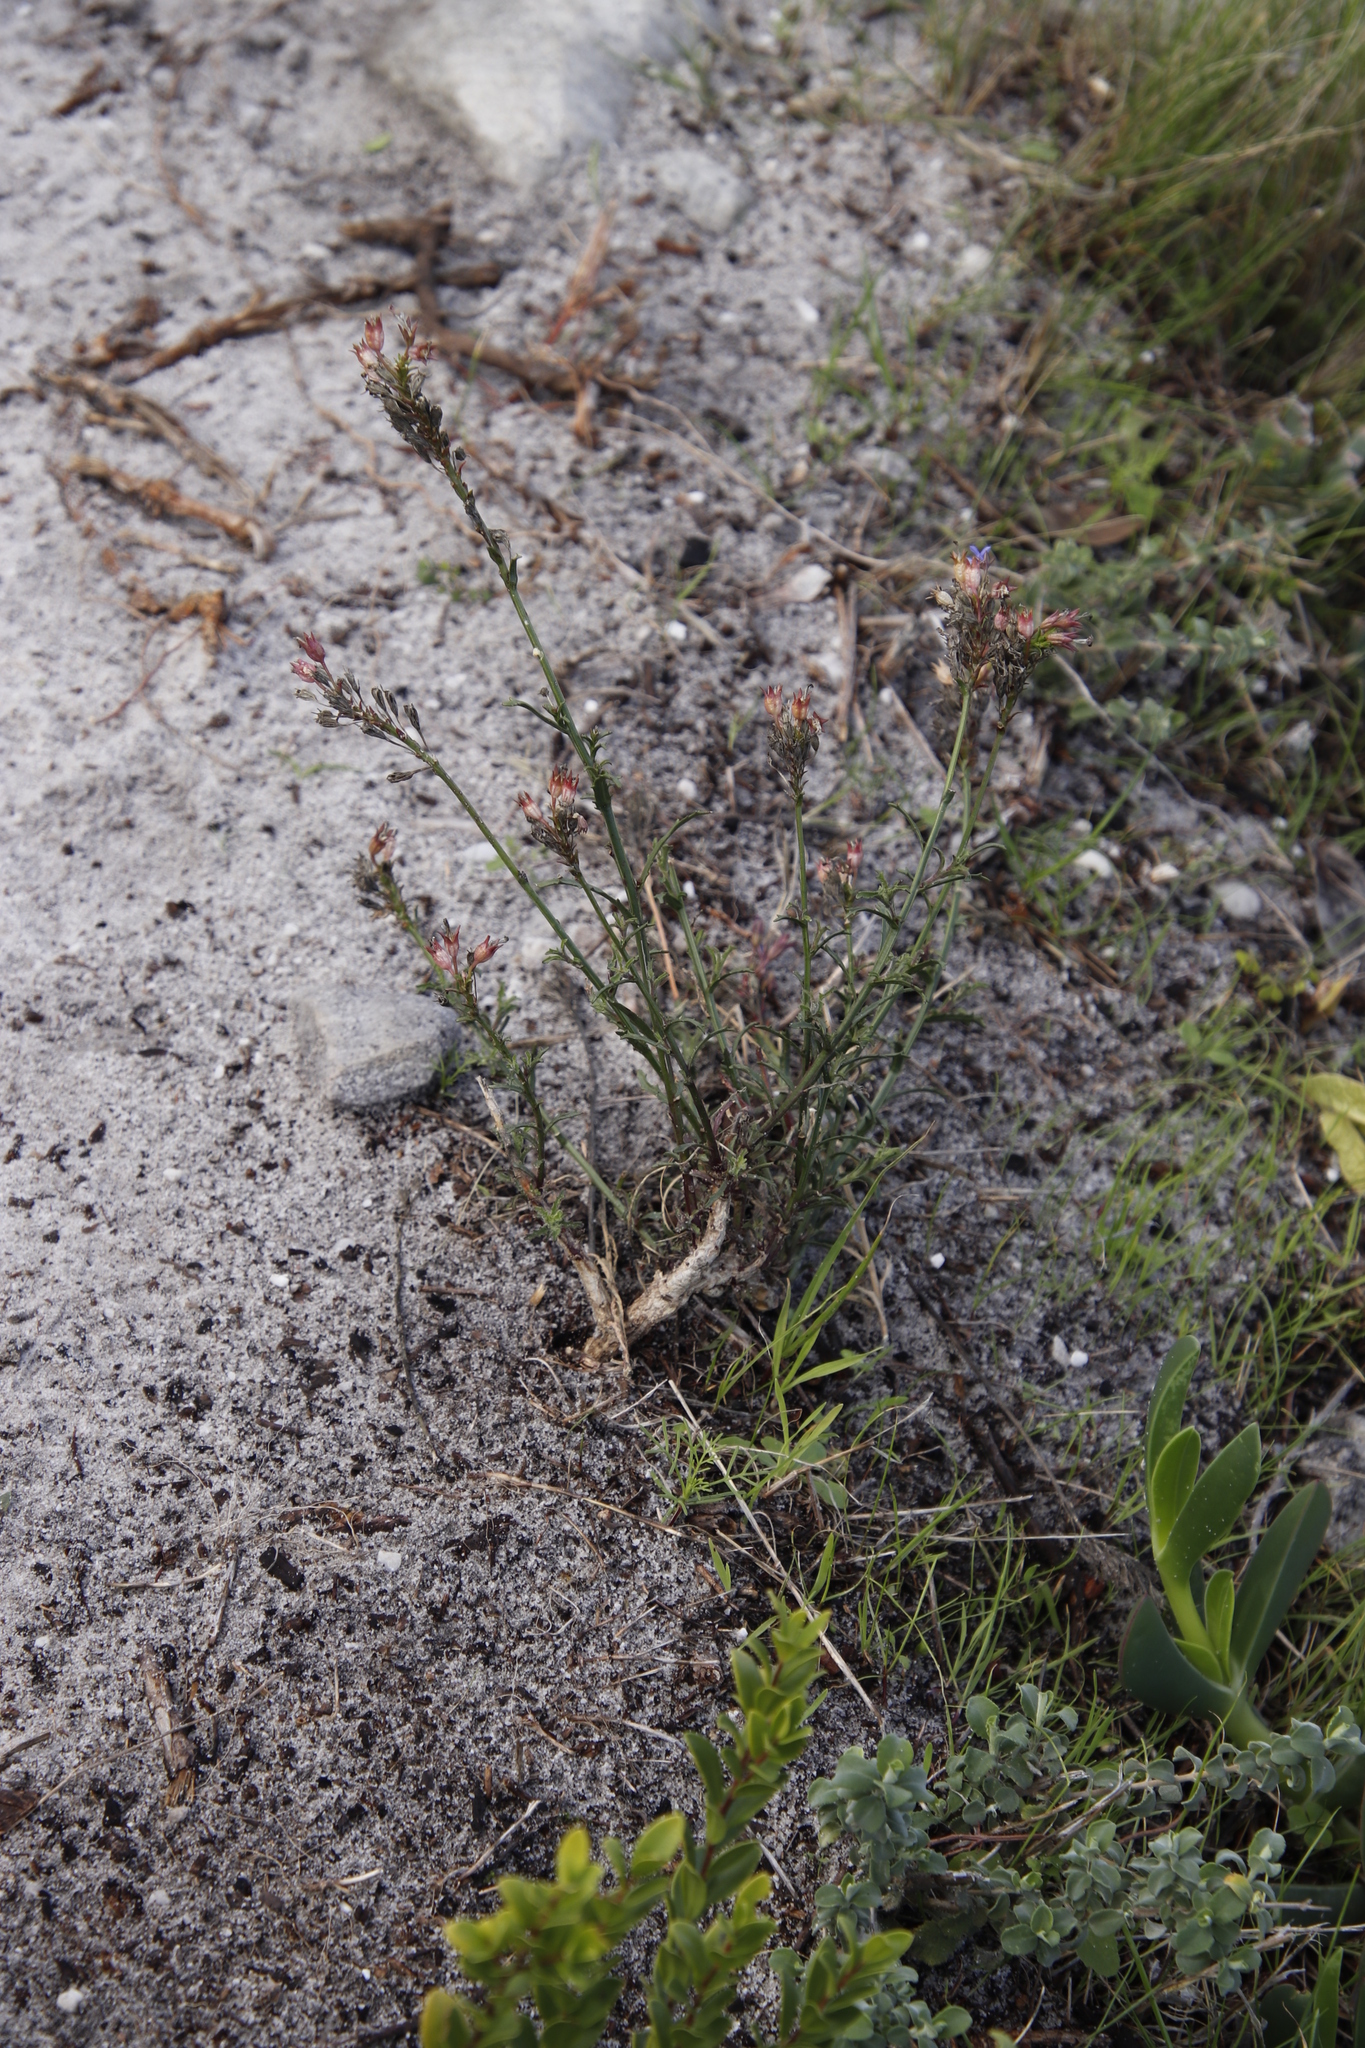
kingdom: Plantae
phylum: Tracheophyta
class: Magnoliopsida
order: Asterales
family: Campanulaceae
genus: Lobelia
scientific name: Lobelia comosa
